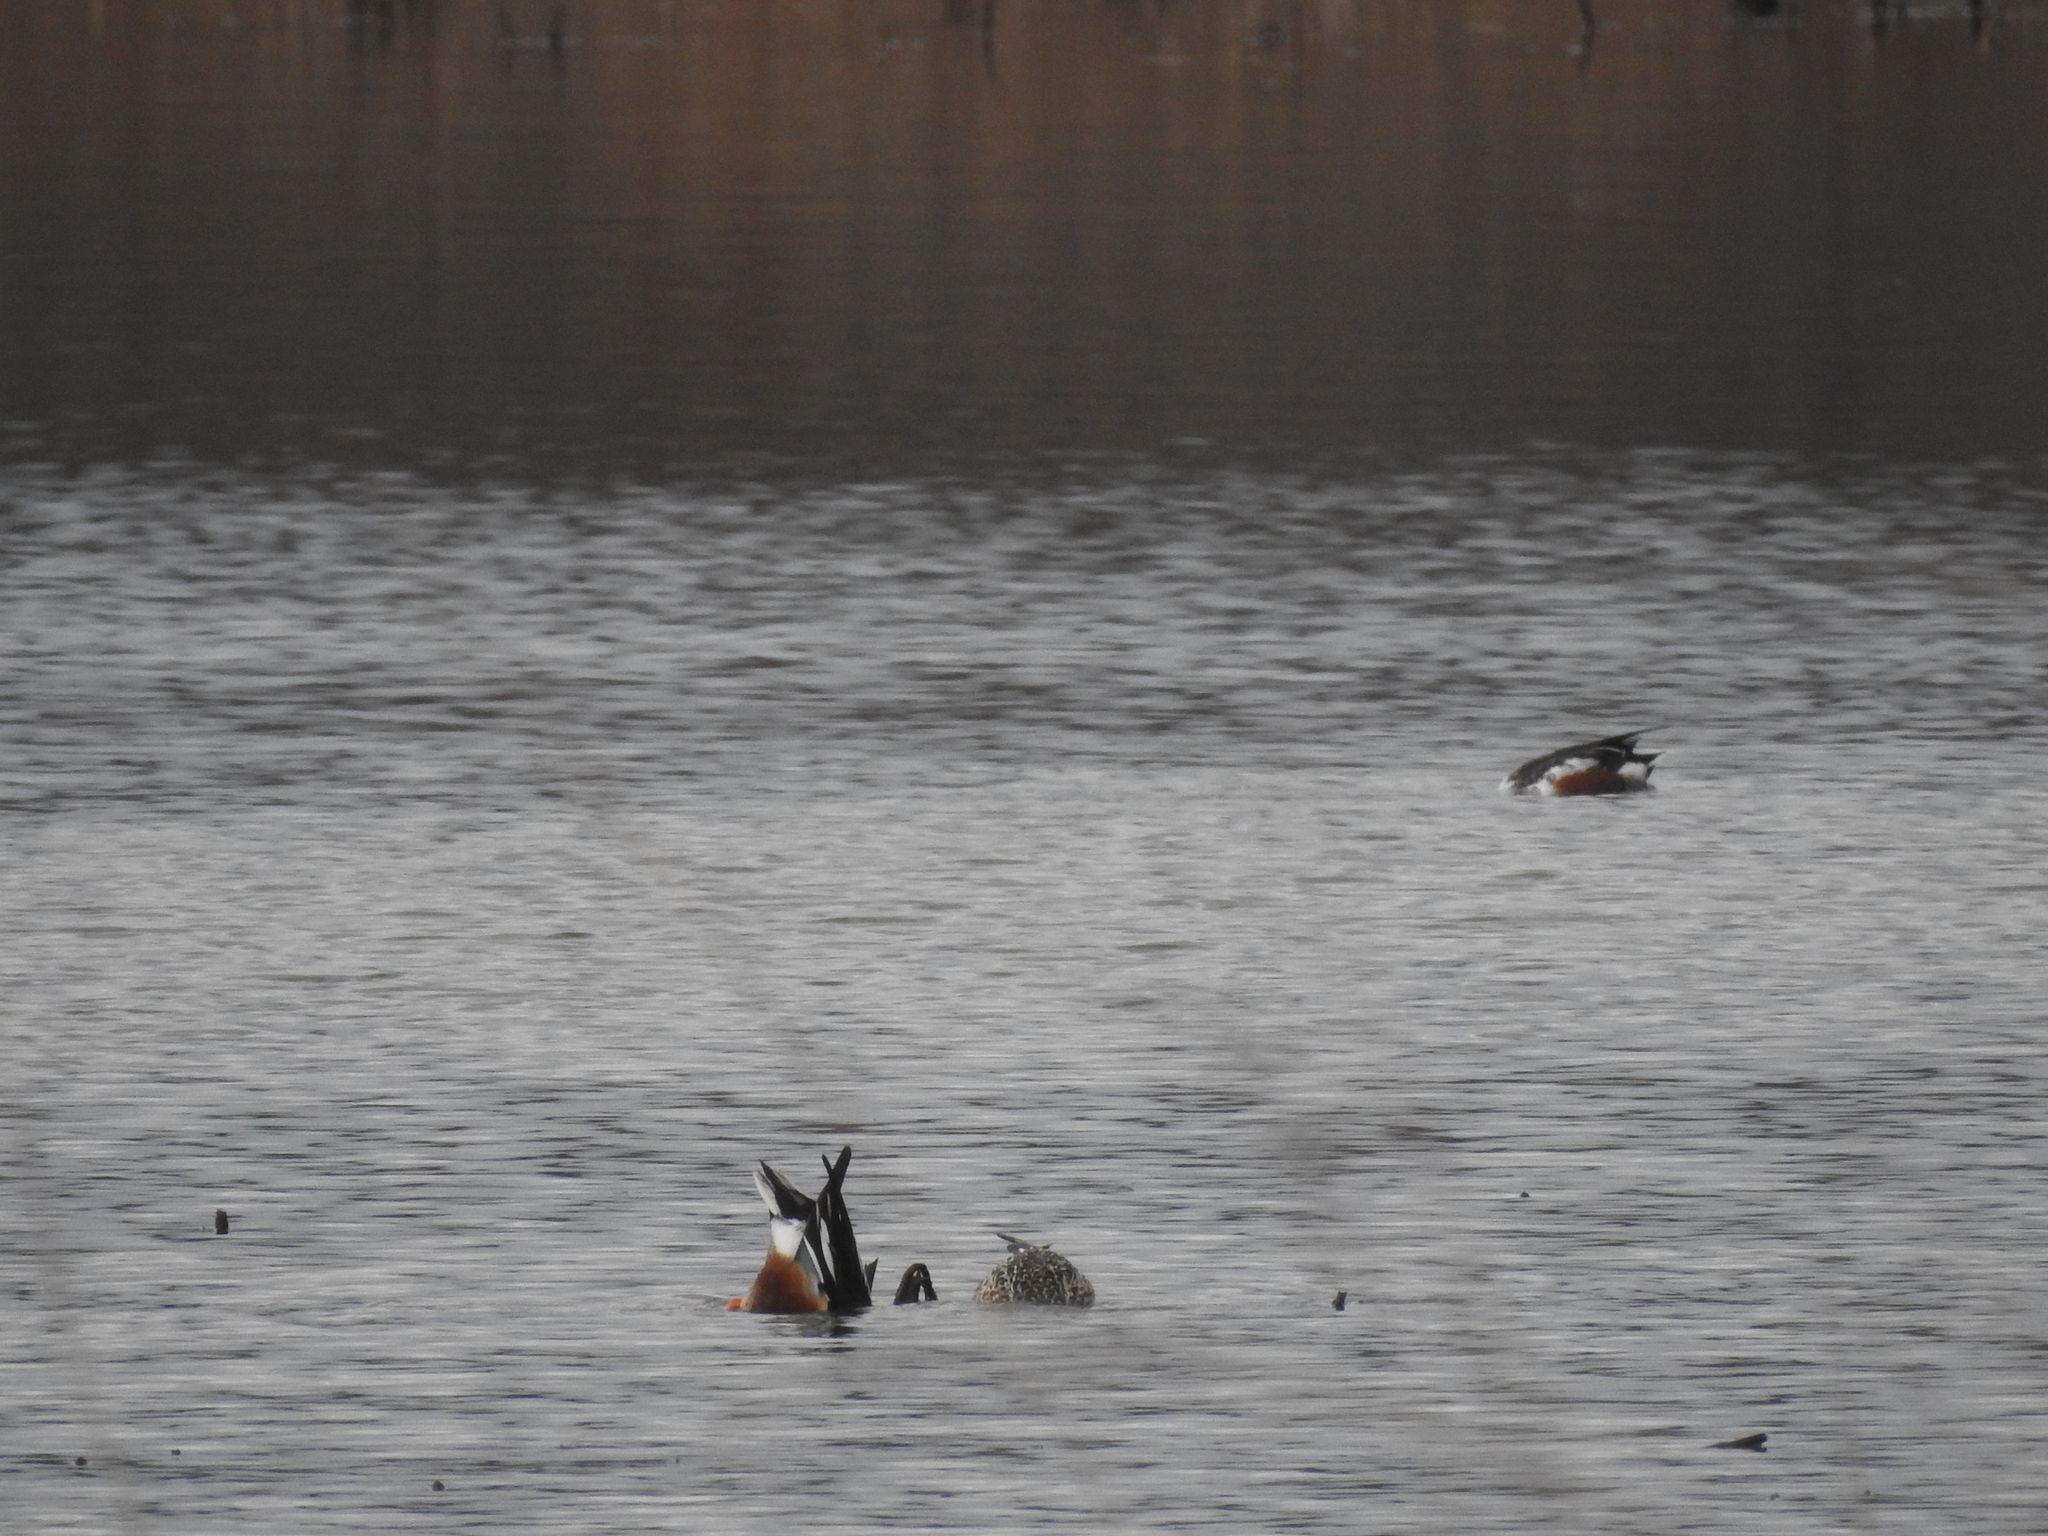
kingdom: Animalia
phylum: Chordata
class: Aves
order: Anseriformes
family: Anatidae
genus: Spatula
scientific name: Spatula clypeata
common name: Northern shoveler
